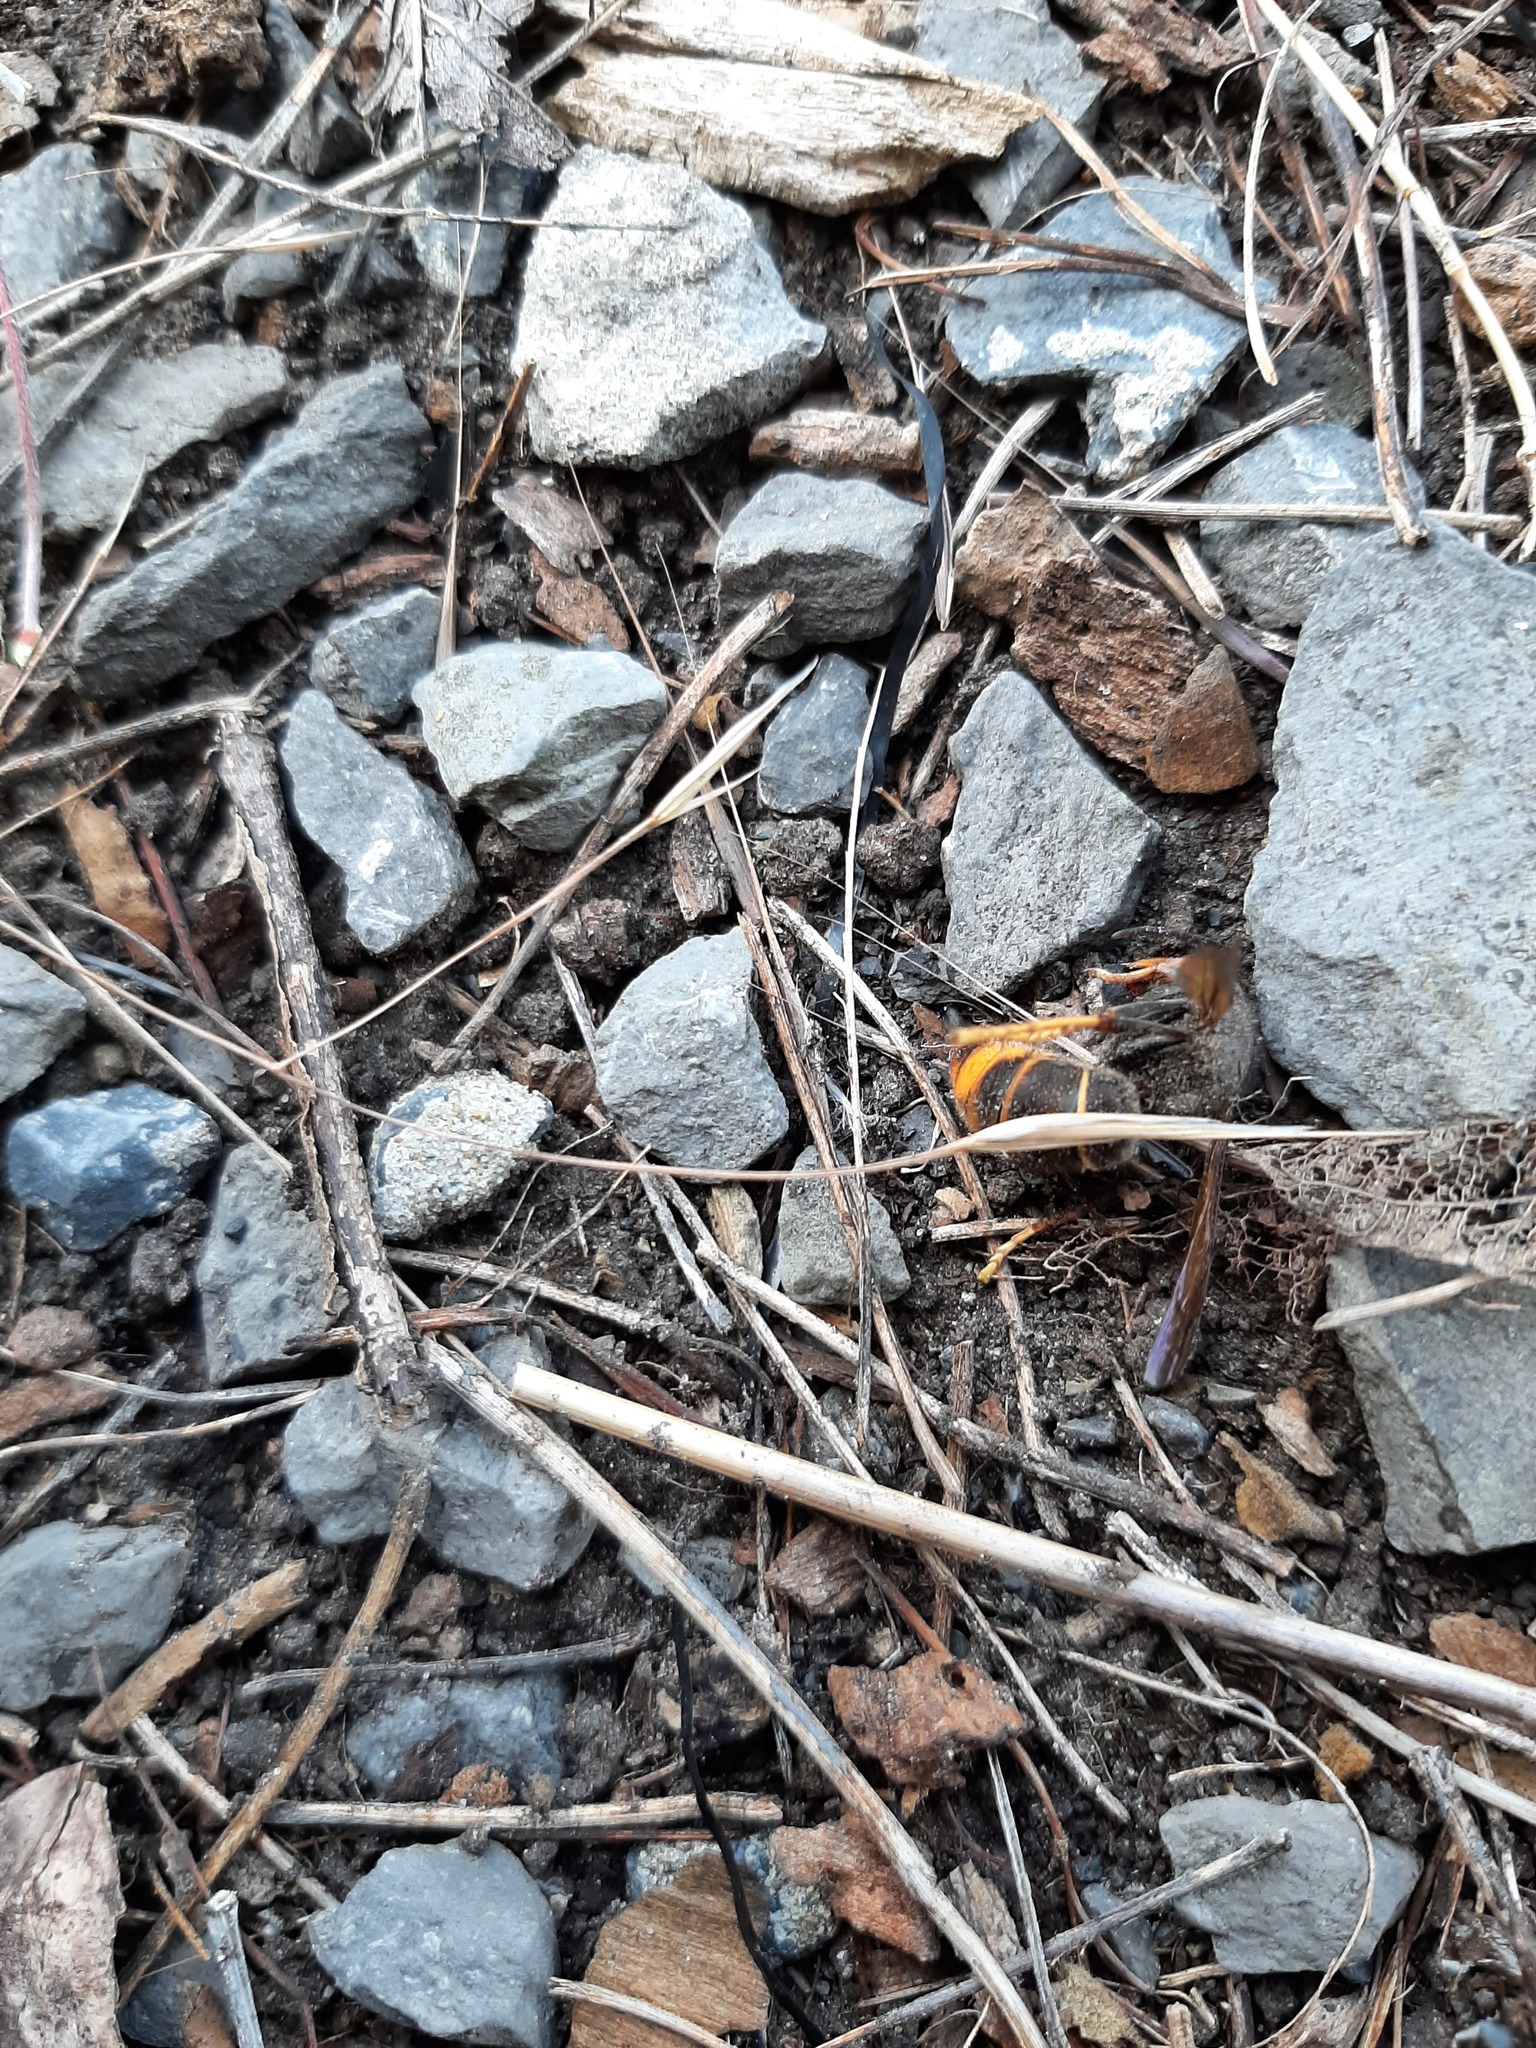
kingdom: Animalia
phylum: Arthropoda
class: Insecta
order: Hymenoptera
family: Vespidae
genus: Vespa
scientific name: Vespa velutina
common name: Asian hornet
